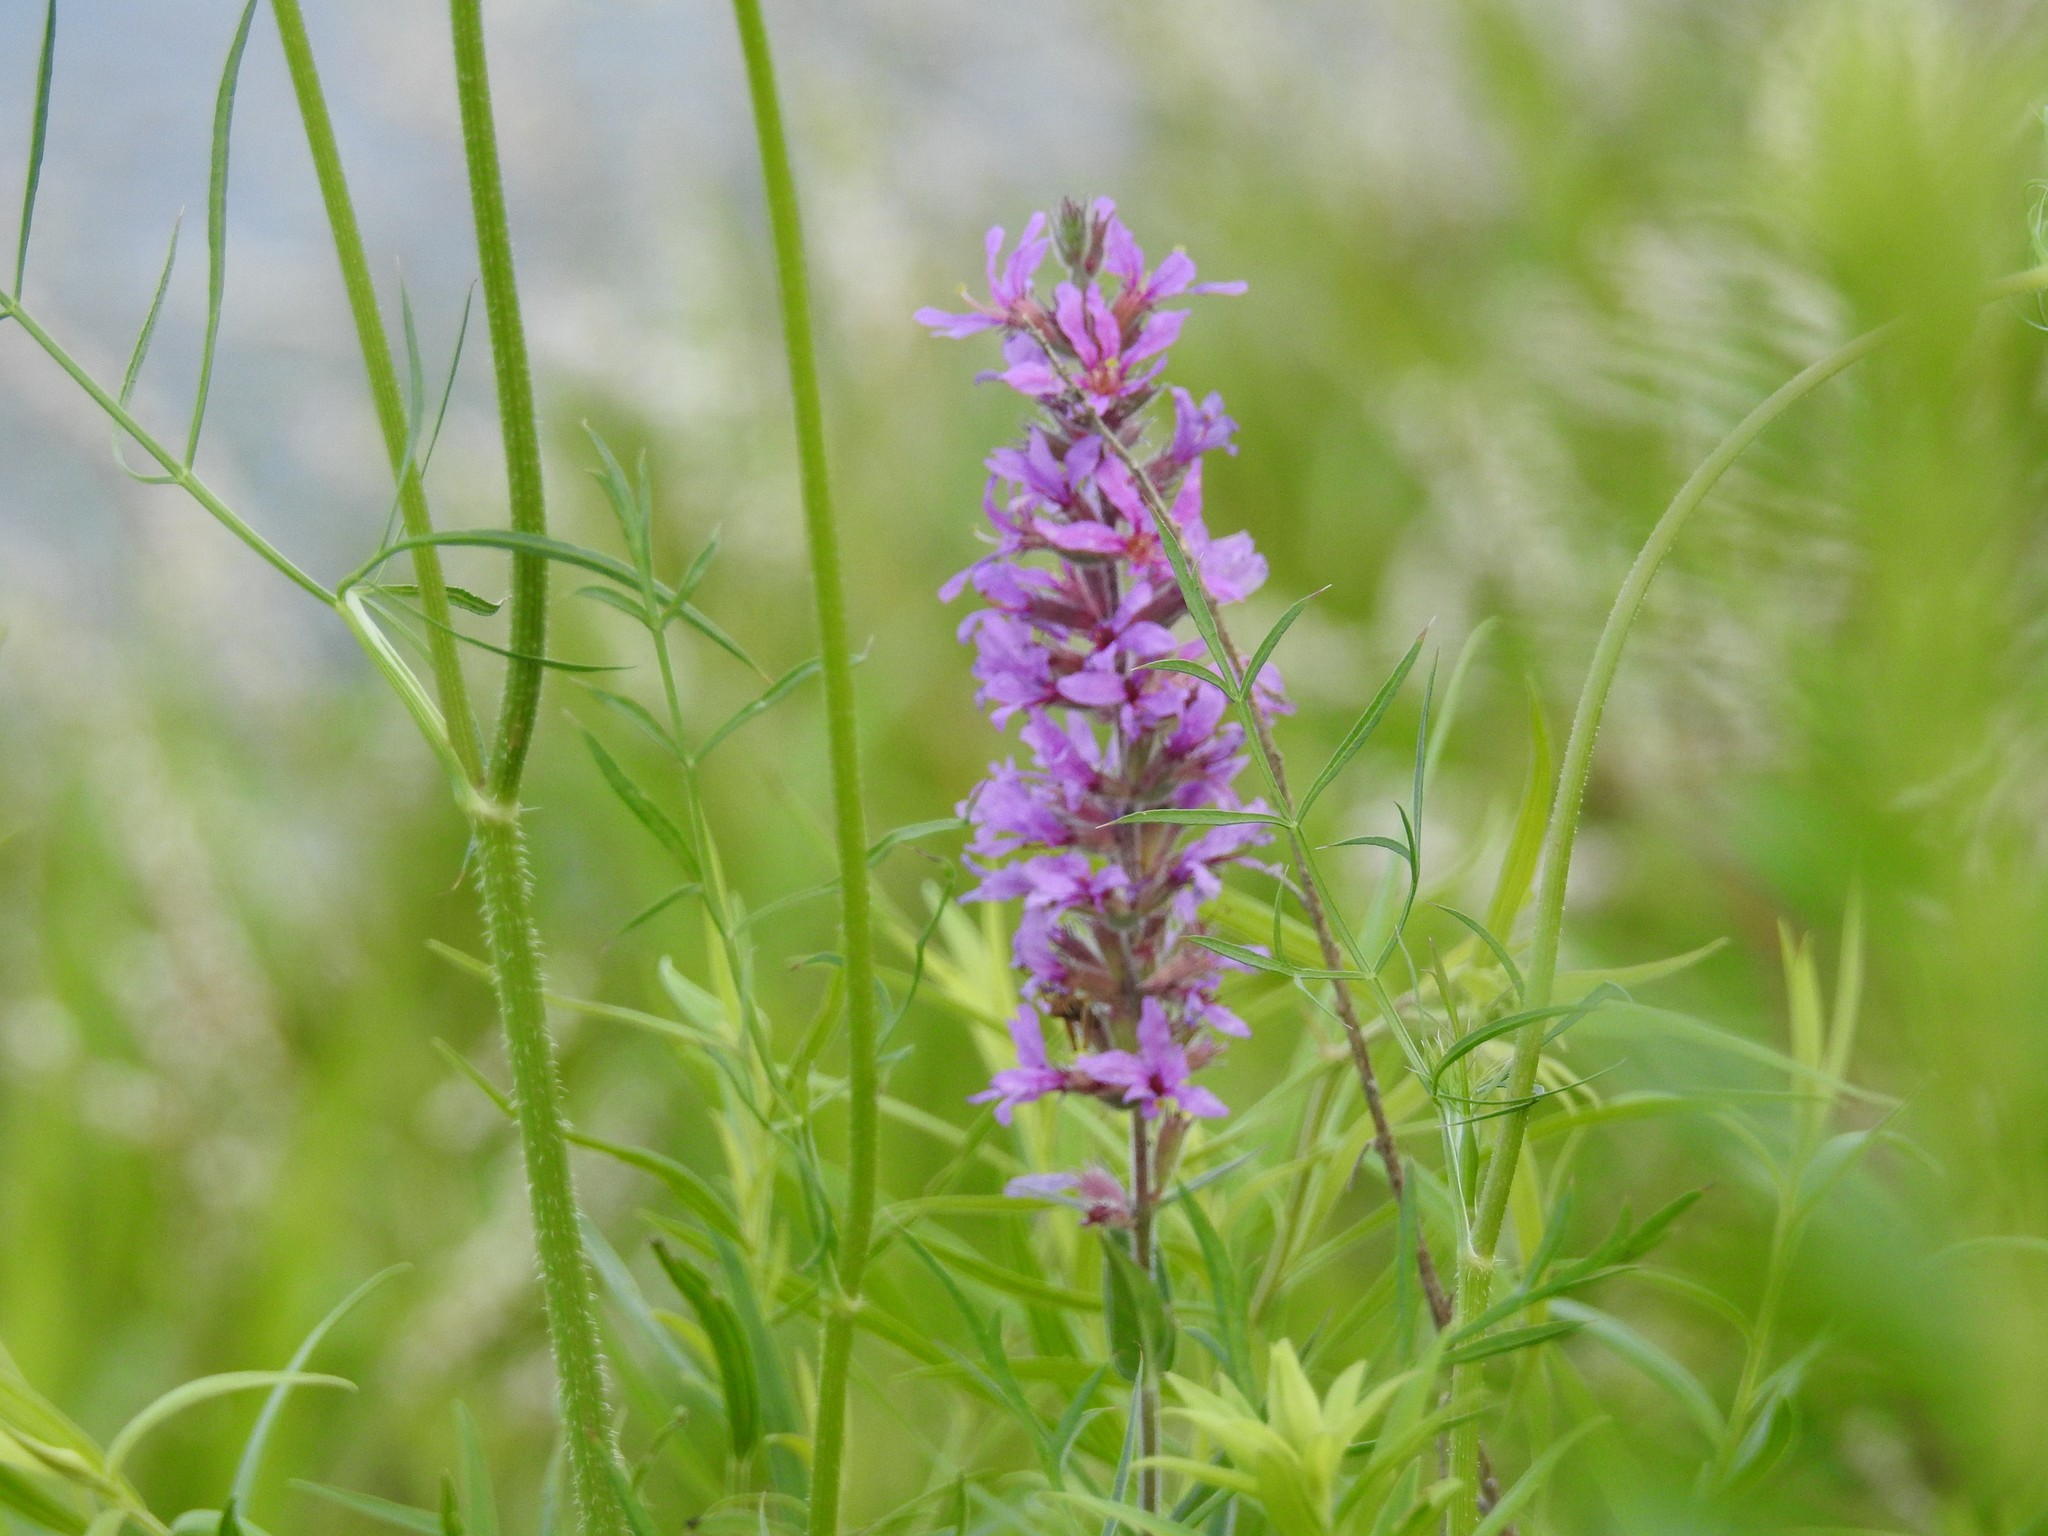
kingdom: Plantae
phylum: Tracheophyta
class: Magnoliopsida
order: Myrtales
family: Lythraceae
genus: Lythrum
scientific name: Lythrum salicaria
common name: Purple loosestrife
